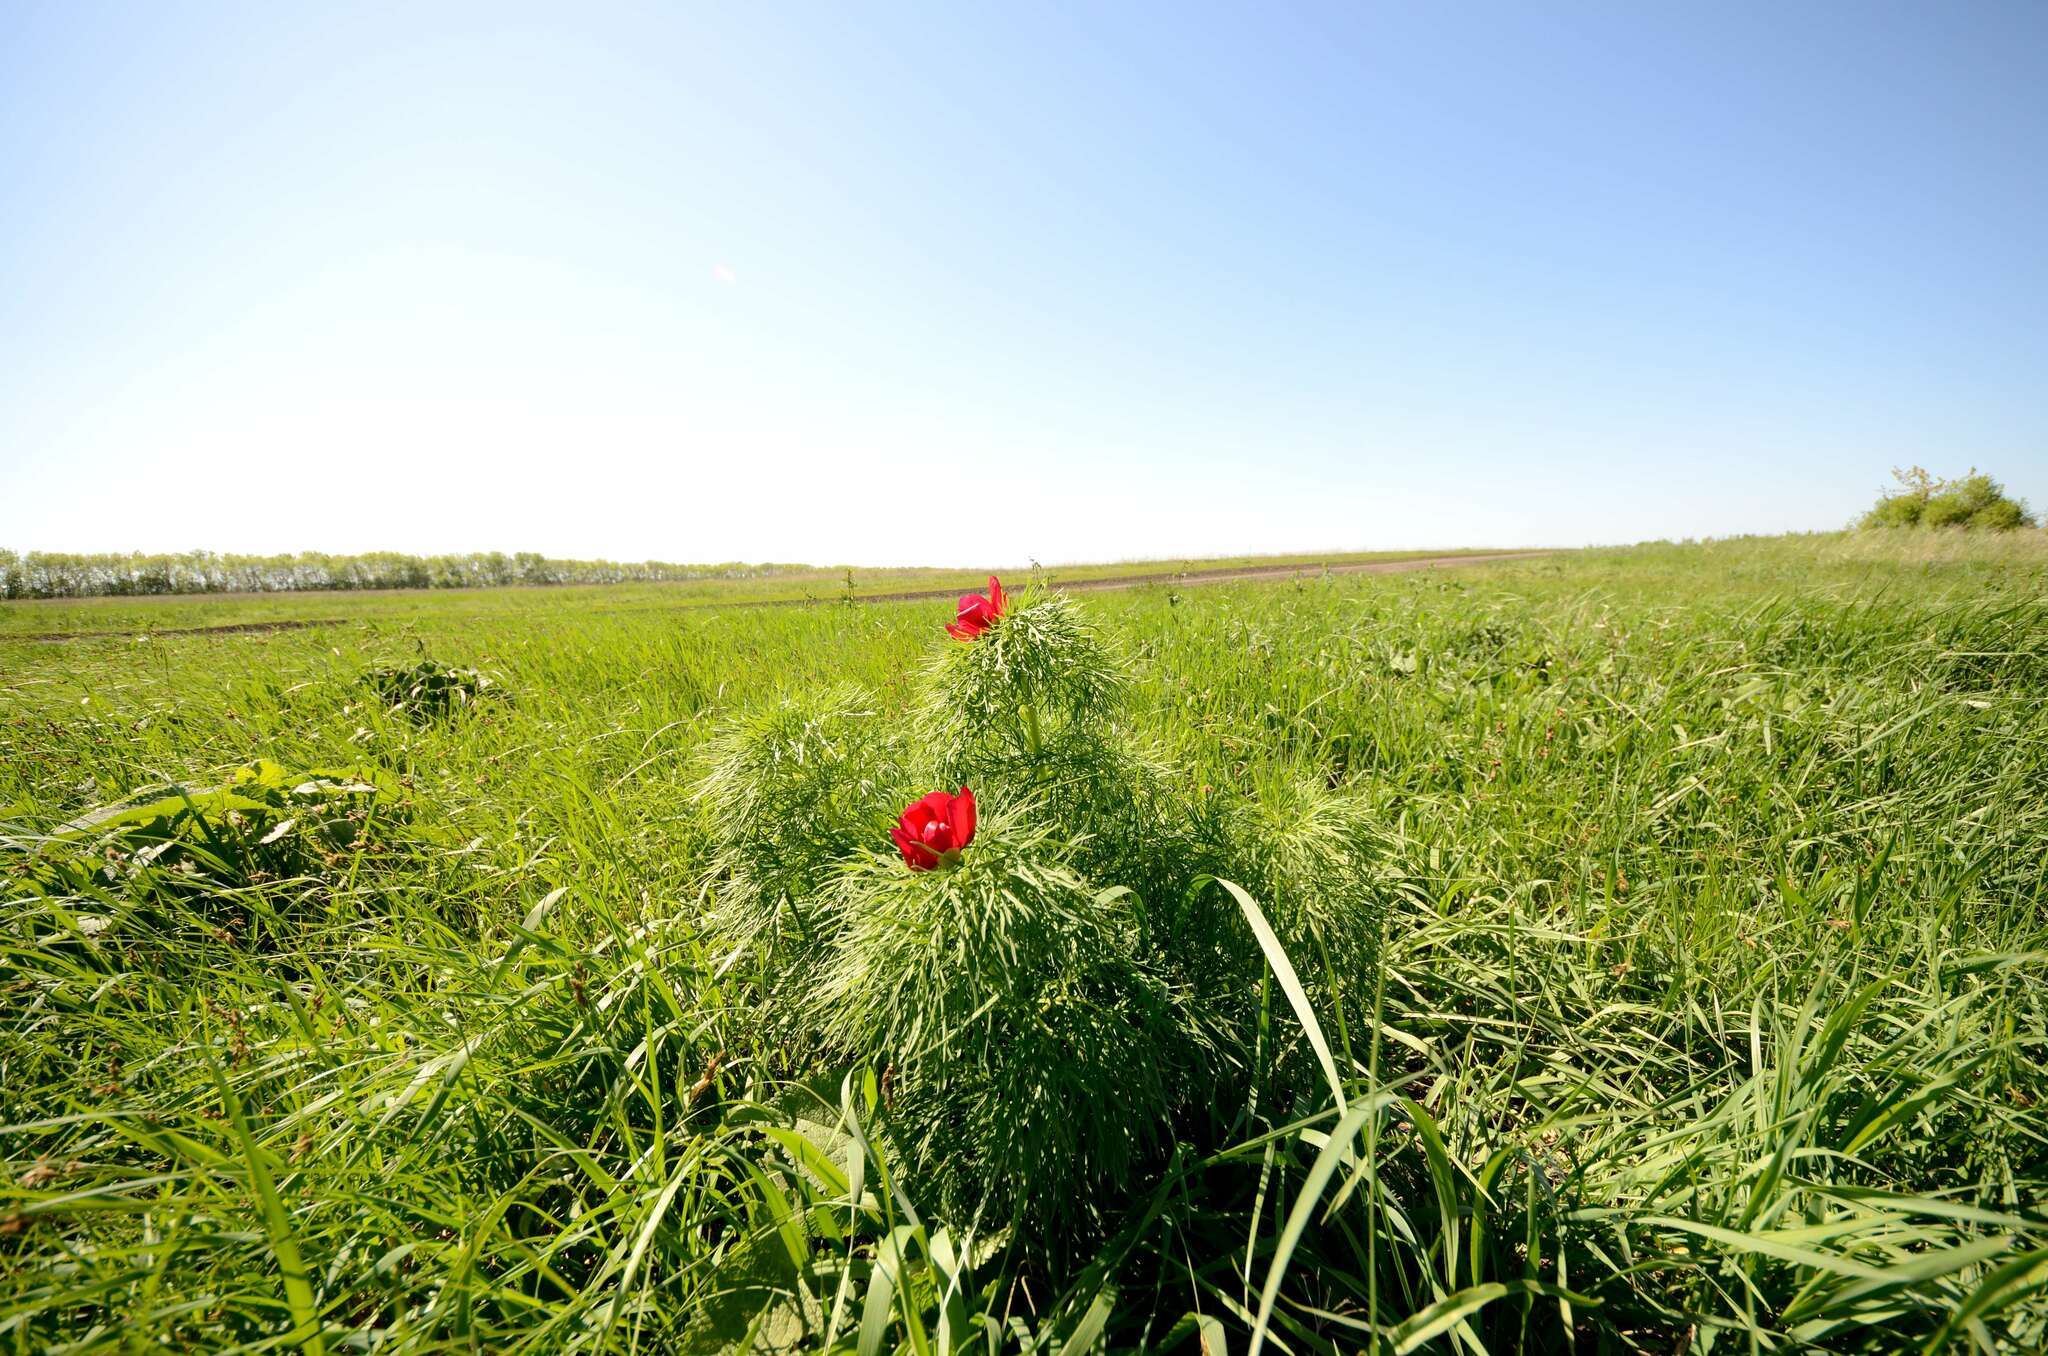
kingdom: Plantae
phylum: Tracheophyta
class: Magnoliopsida
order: Saxifragales
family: Paeoniaceae
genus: Paeonia
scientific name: Paeonia tenuifolia
